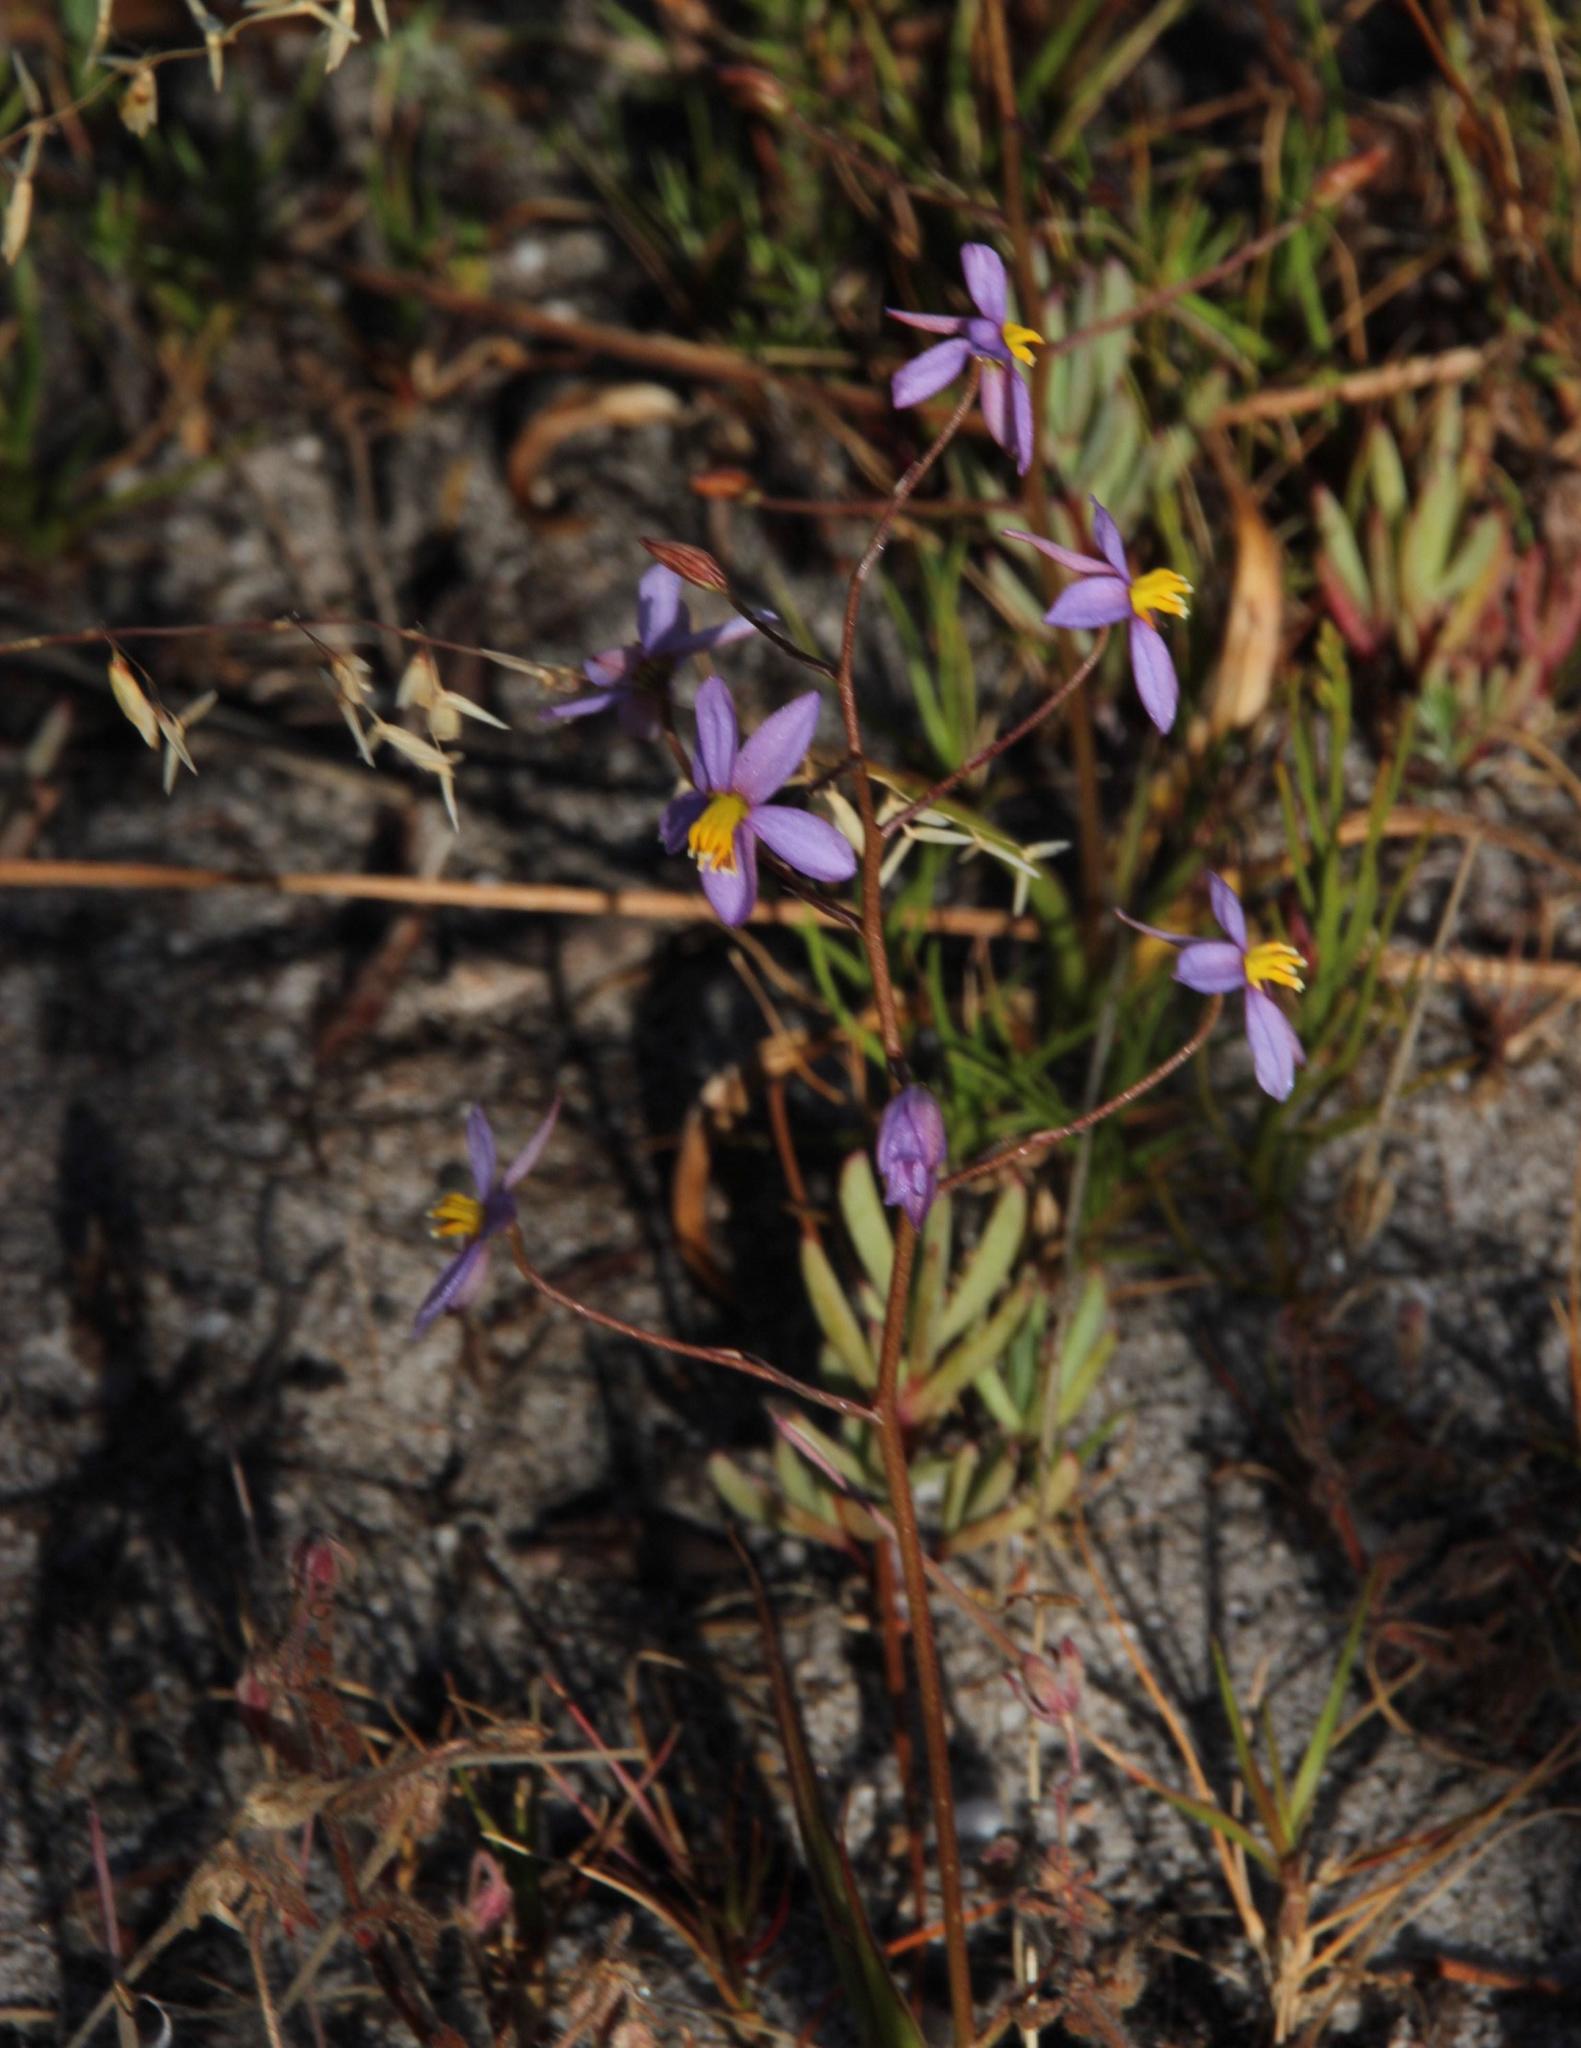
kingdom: Plantae
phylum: Tracheophyta
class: Liliopsida
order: Asparagales
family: Tecophilaeaceae
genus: Cyanella
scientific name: Cyanella hyacinthoides
